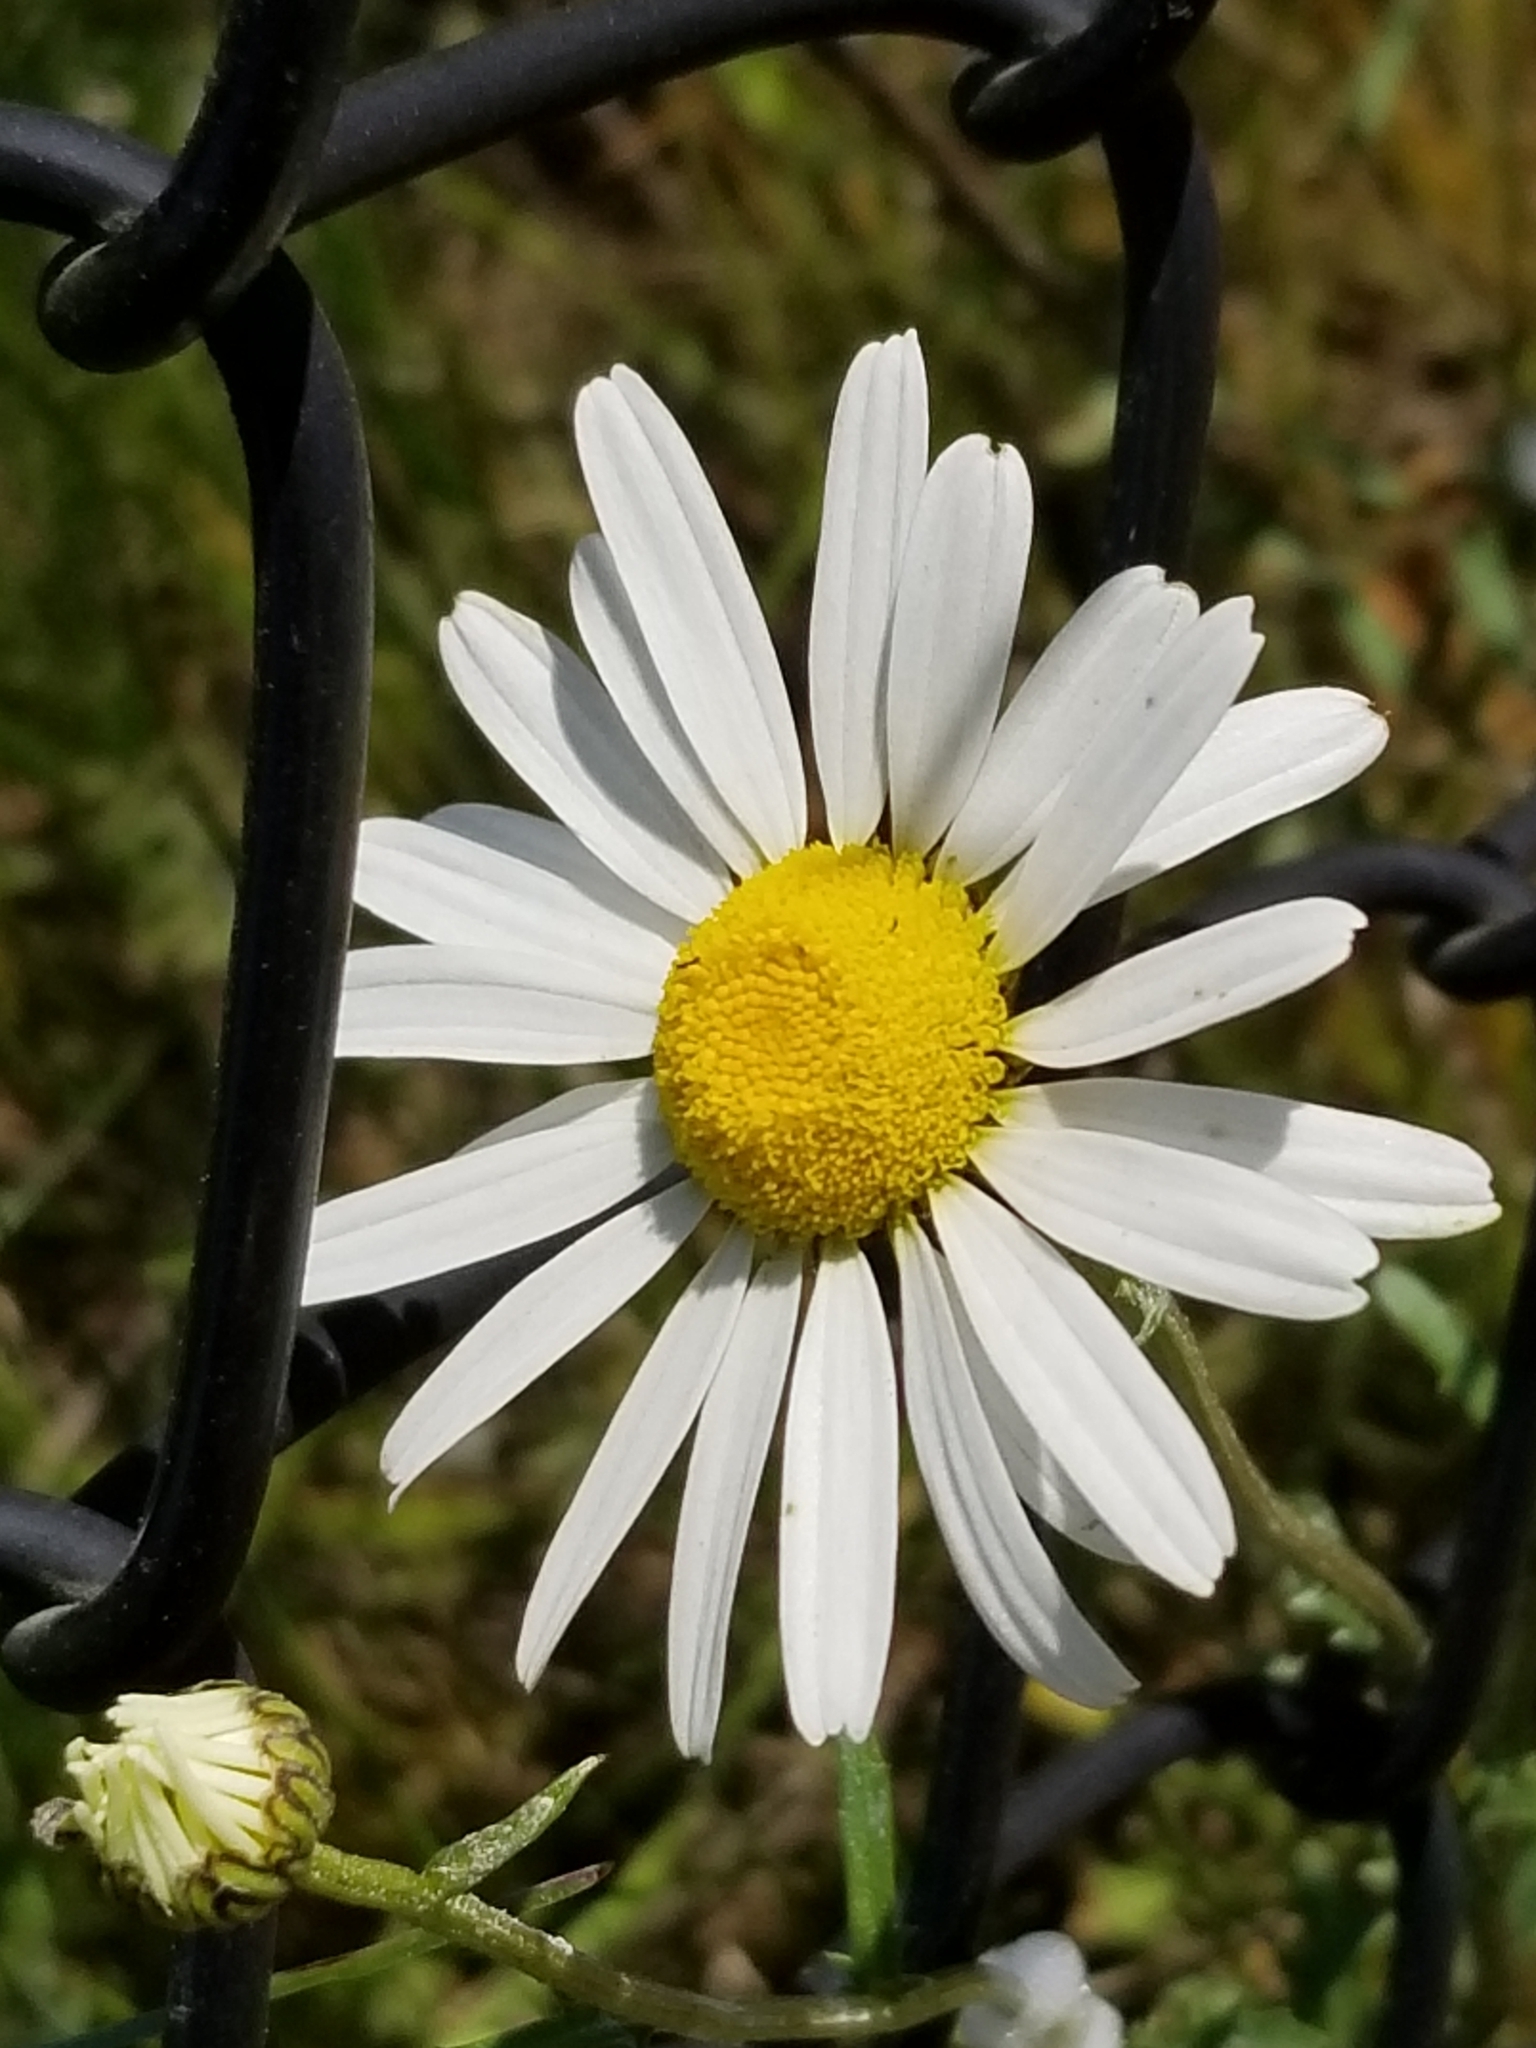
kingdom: Plantae
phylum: Tracheophyta
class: Magnoliopsida
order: Asterales
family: Asteraceae
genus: Leucanthemum
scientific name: Leucanthemum vulgare
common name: Oxeye daisy
